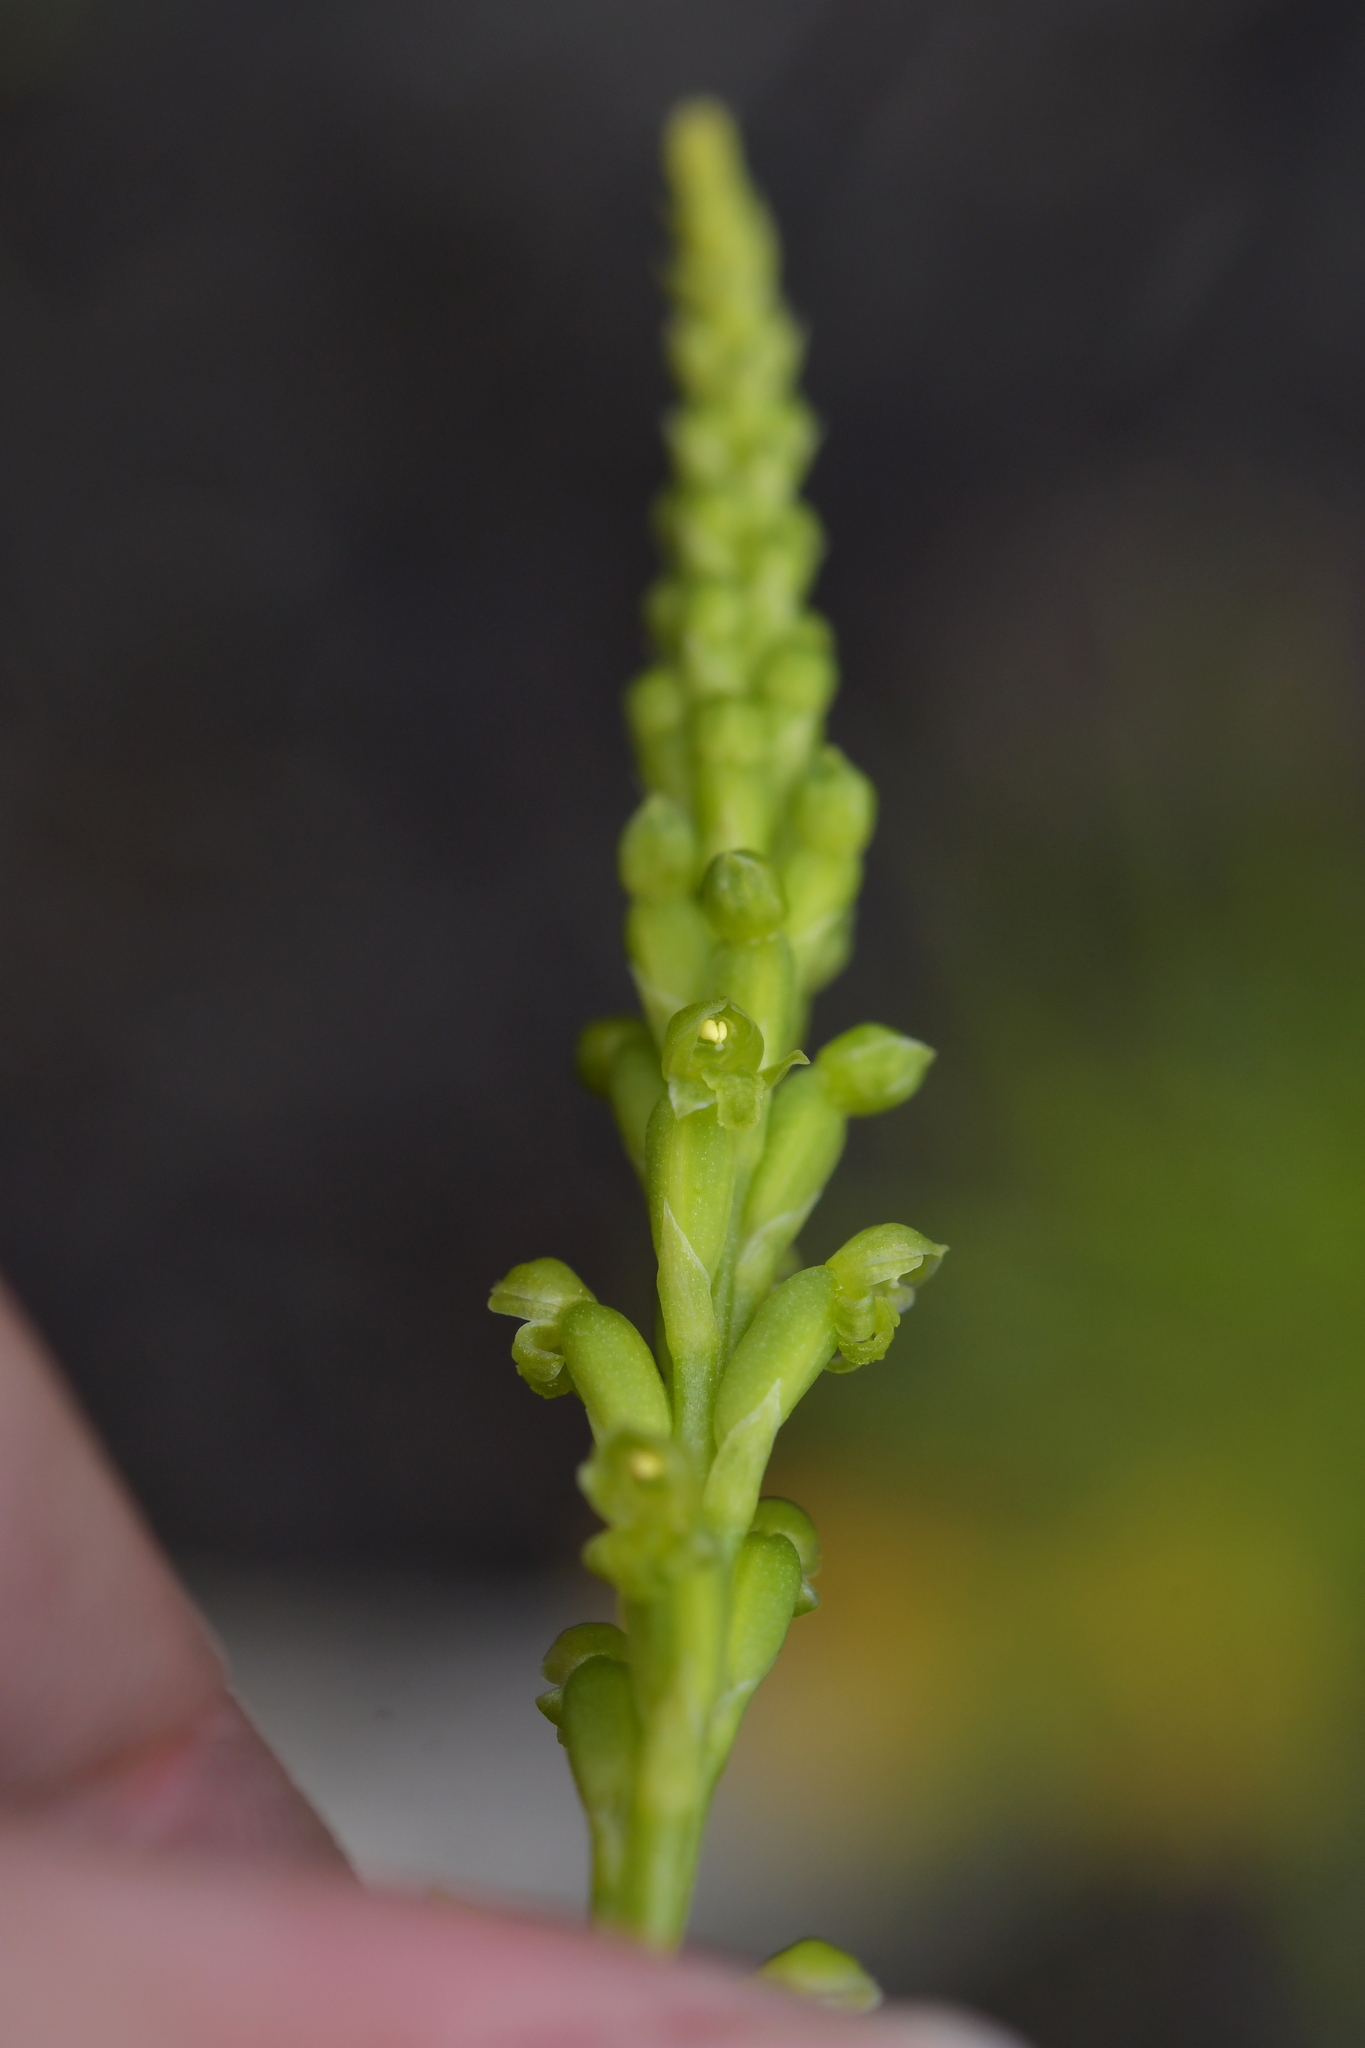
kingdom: Plantae
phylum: Tracheophyta
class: Liliopsida
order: Asparagales
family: Orchidaceae
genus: Microtis
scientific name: Microtis parviflora
